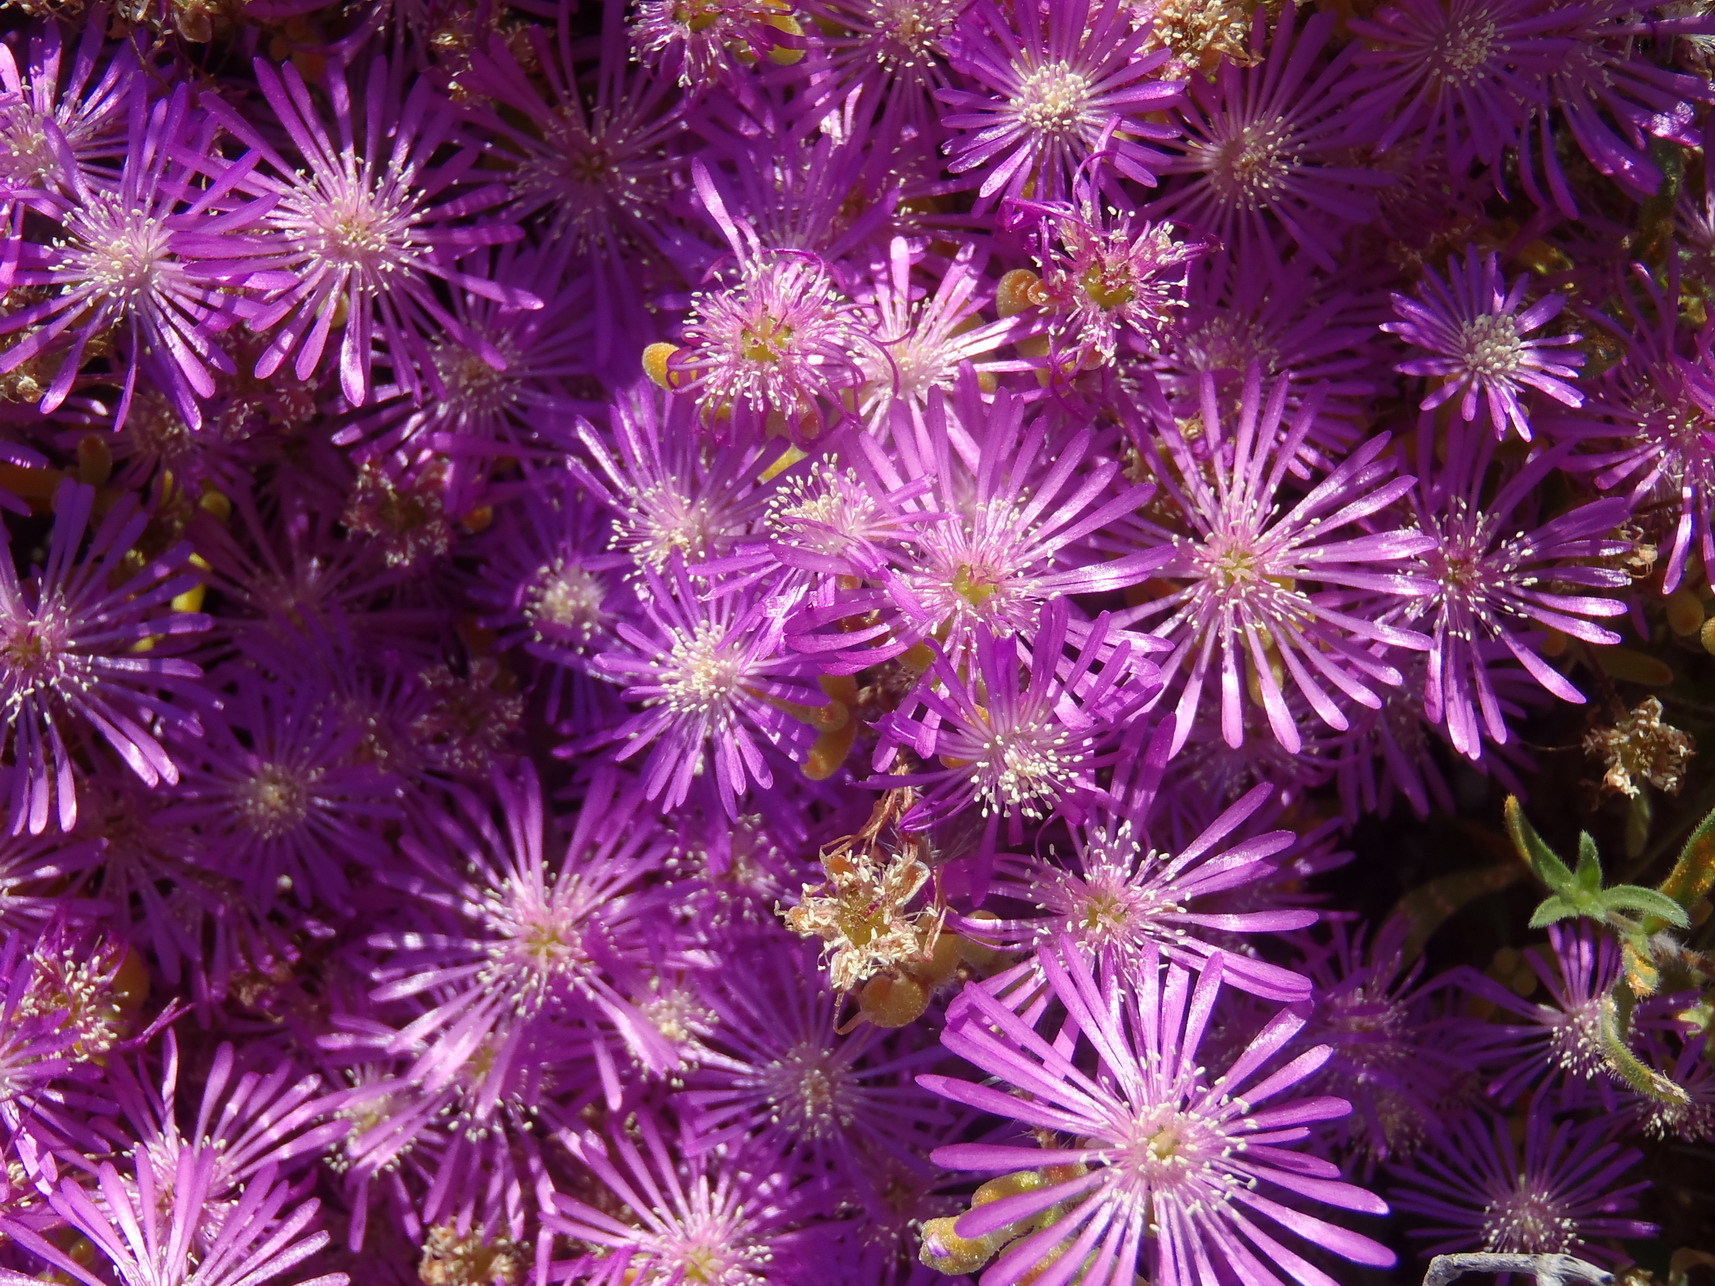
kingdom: Plantae
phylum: Tracheophyta
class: Magnoliopsida
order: Caryophyllales
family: Aizoaceae
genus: Drosanthemum
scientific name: Drosanthemum hispidum
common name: Hairy dewflower
